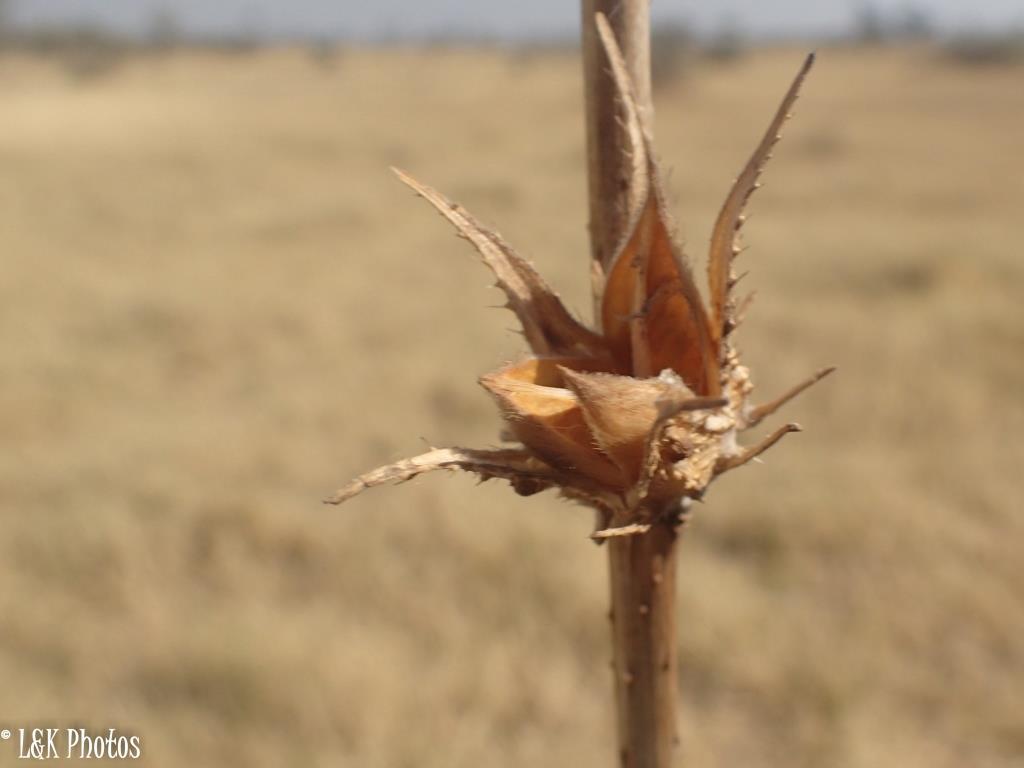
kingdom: Plantae
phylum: Tracheophyta
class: Magnoliopsida
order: Malvales
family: Malvaceae
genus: Hibiscus
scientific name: Hibiscus cannabinus
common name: Brown indianhemp
